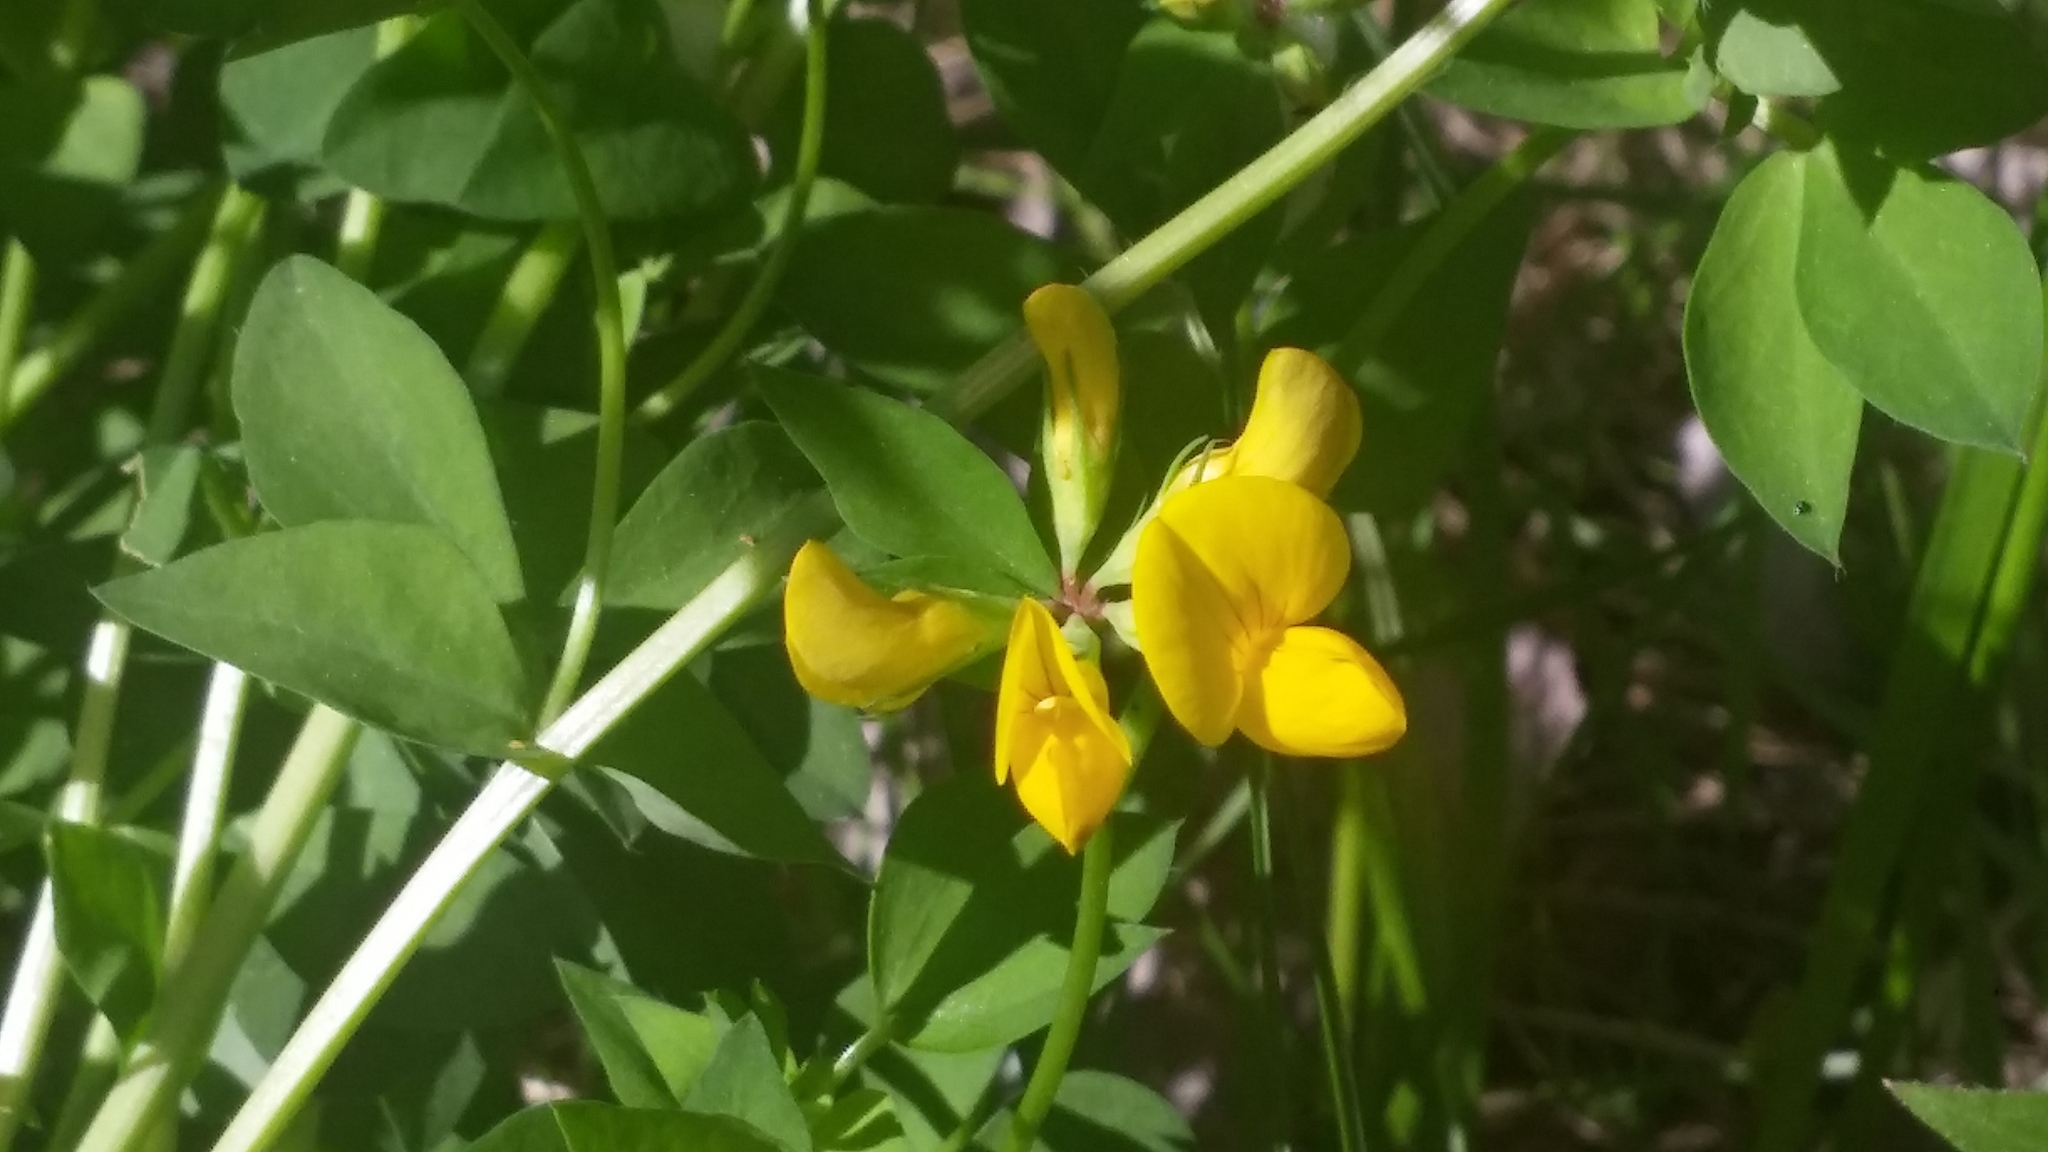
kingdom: Plantae
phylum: Tracheophyta
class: Magnoliopsida
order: Fabales
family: Fabaceae
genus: Lotus
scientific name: Lotus corniculatus
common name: Common bird's-foot-trefoil
